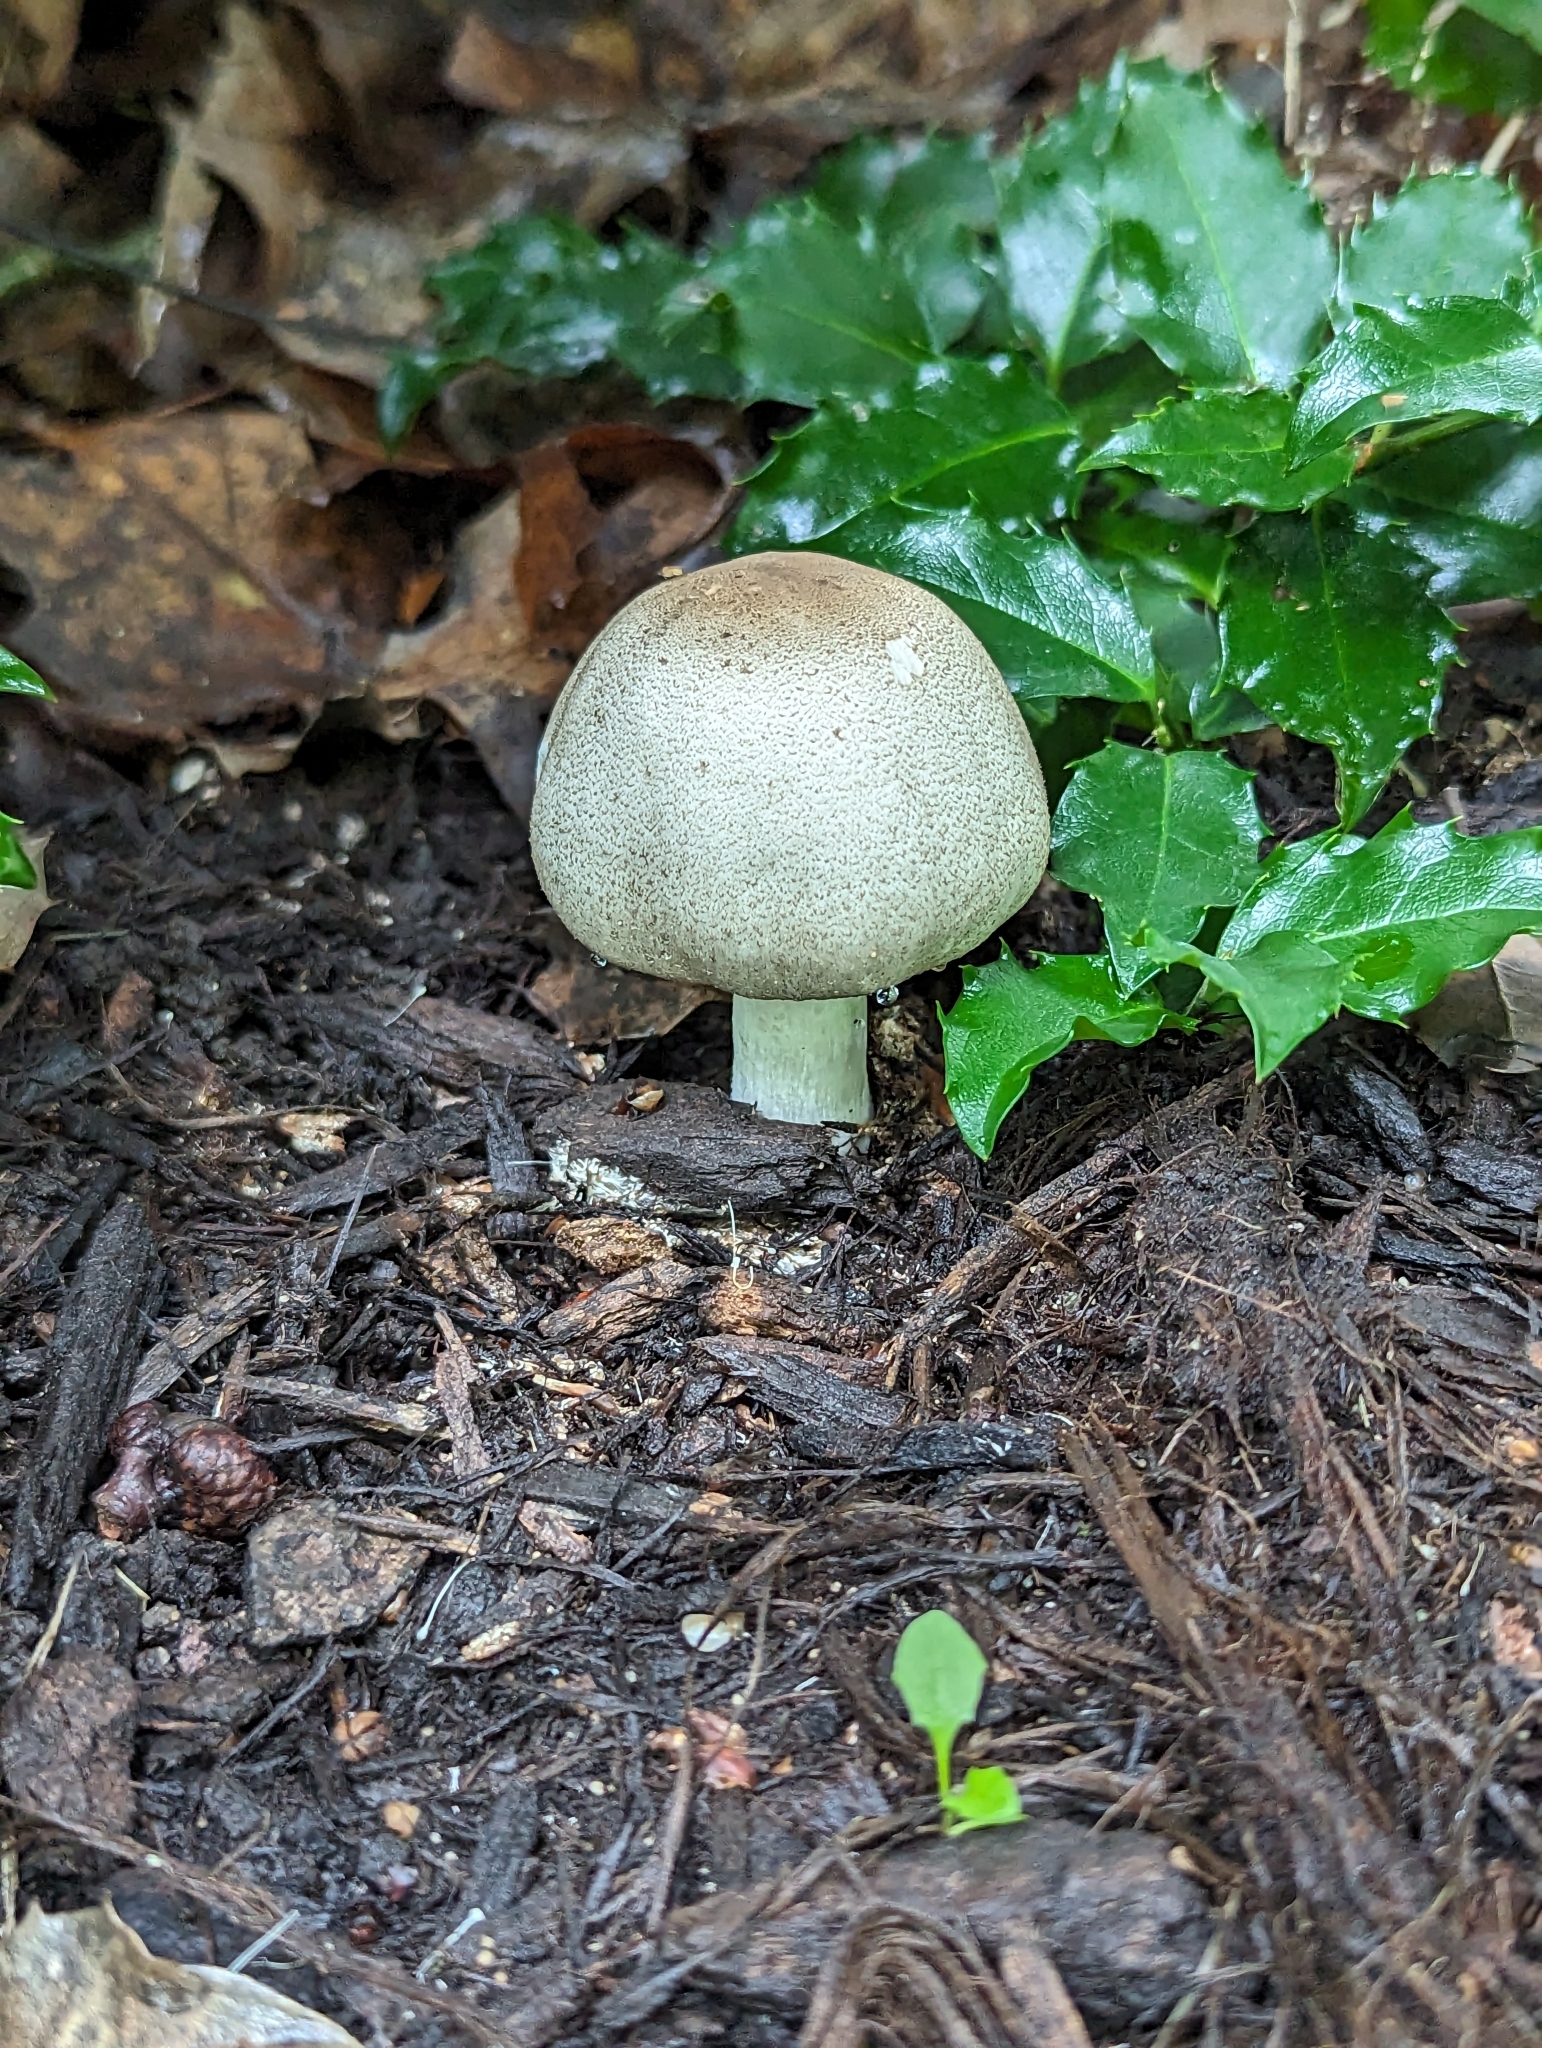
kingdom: Fungi
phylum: Basidiomycota
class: Agaricomycetes
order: Agaricales
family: Agaricaceae
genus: Agaricus
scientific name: Agaricus xanthodermus
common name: Yellow stainer
